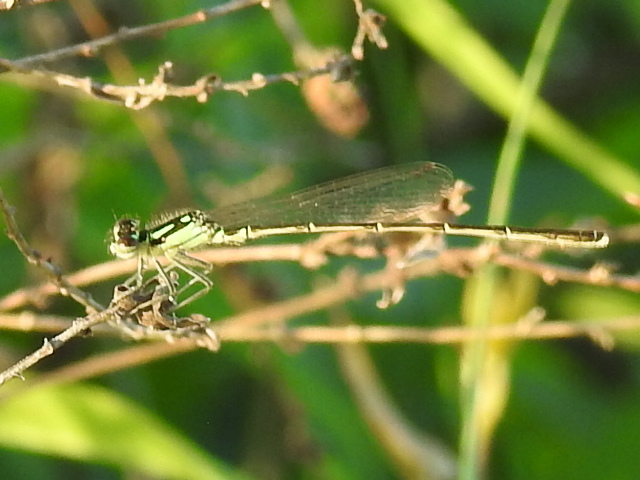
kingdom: Animalia
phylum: Arthropoda
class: Insecta
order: Odonata
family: Coenagrionidae
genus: Ischnura
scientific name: Ischnura posita
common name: Fragile forktail
